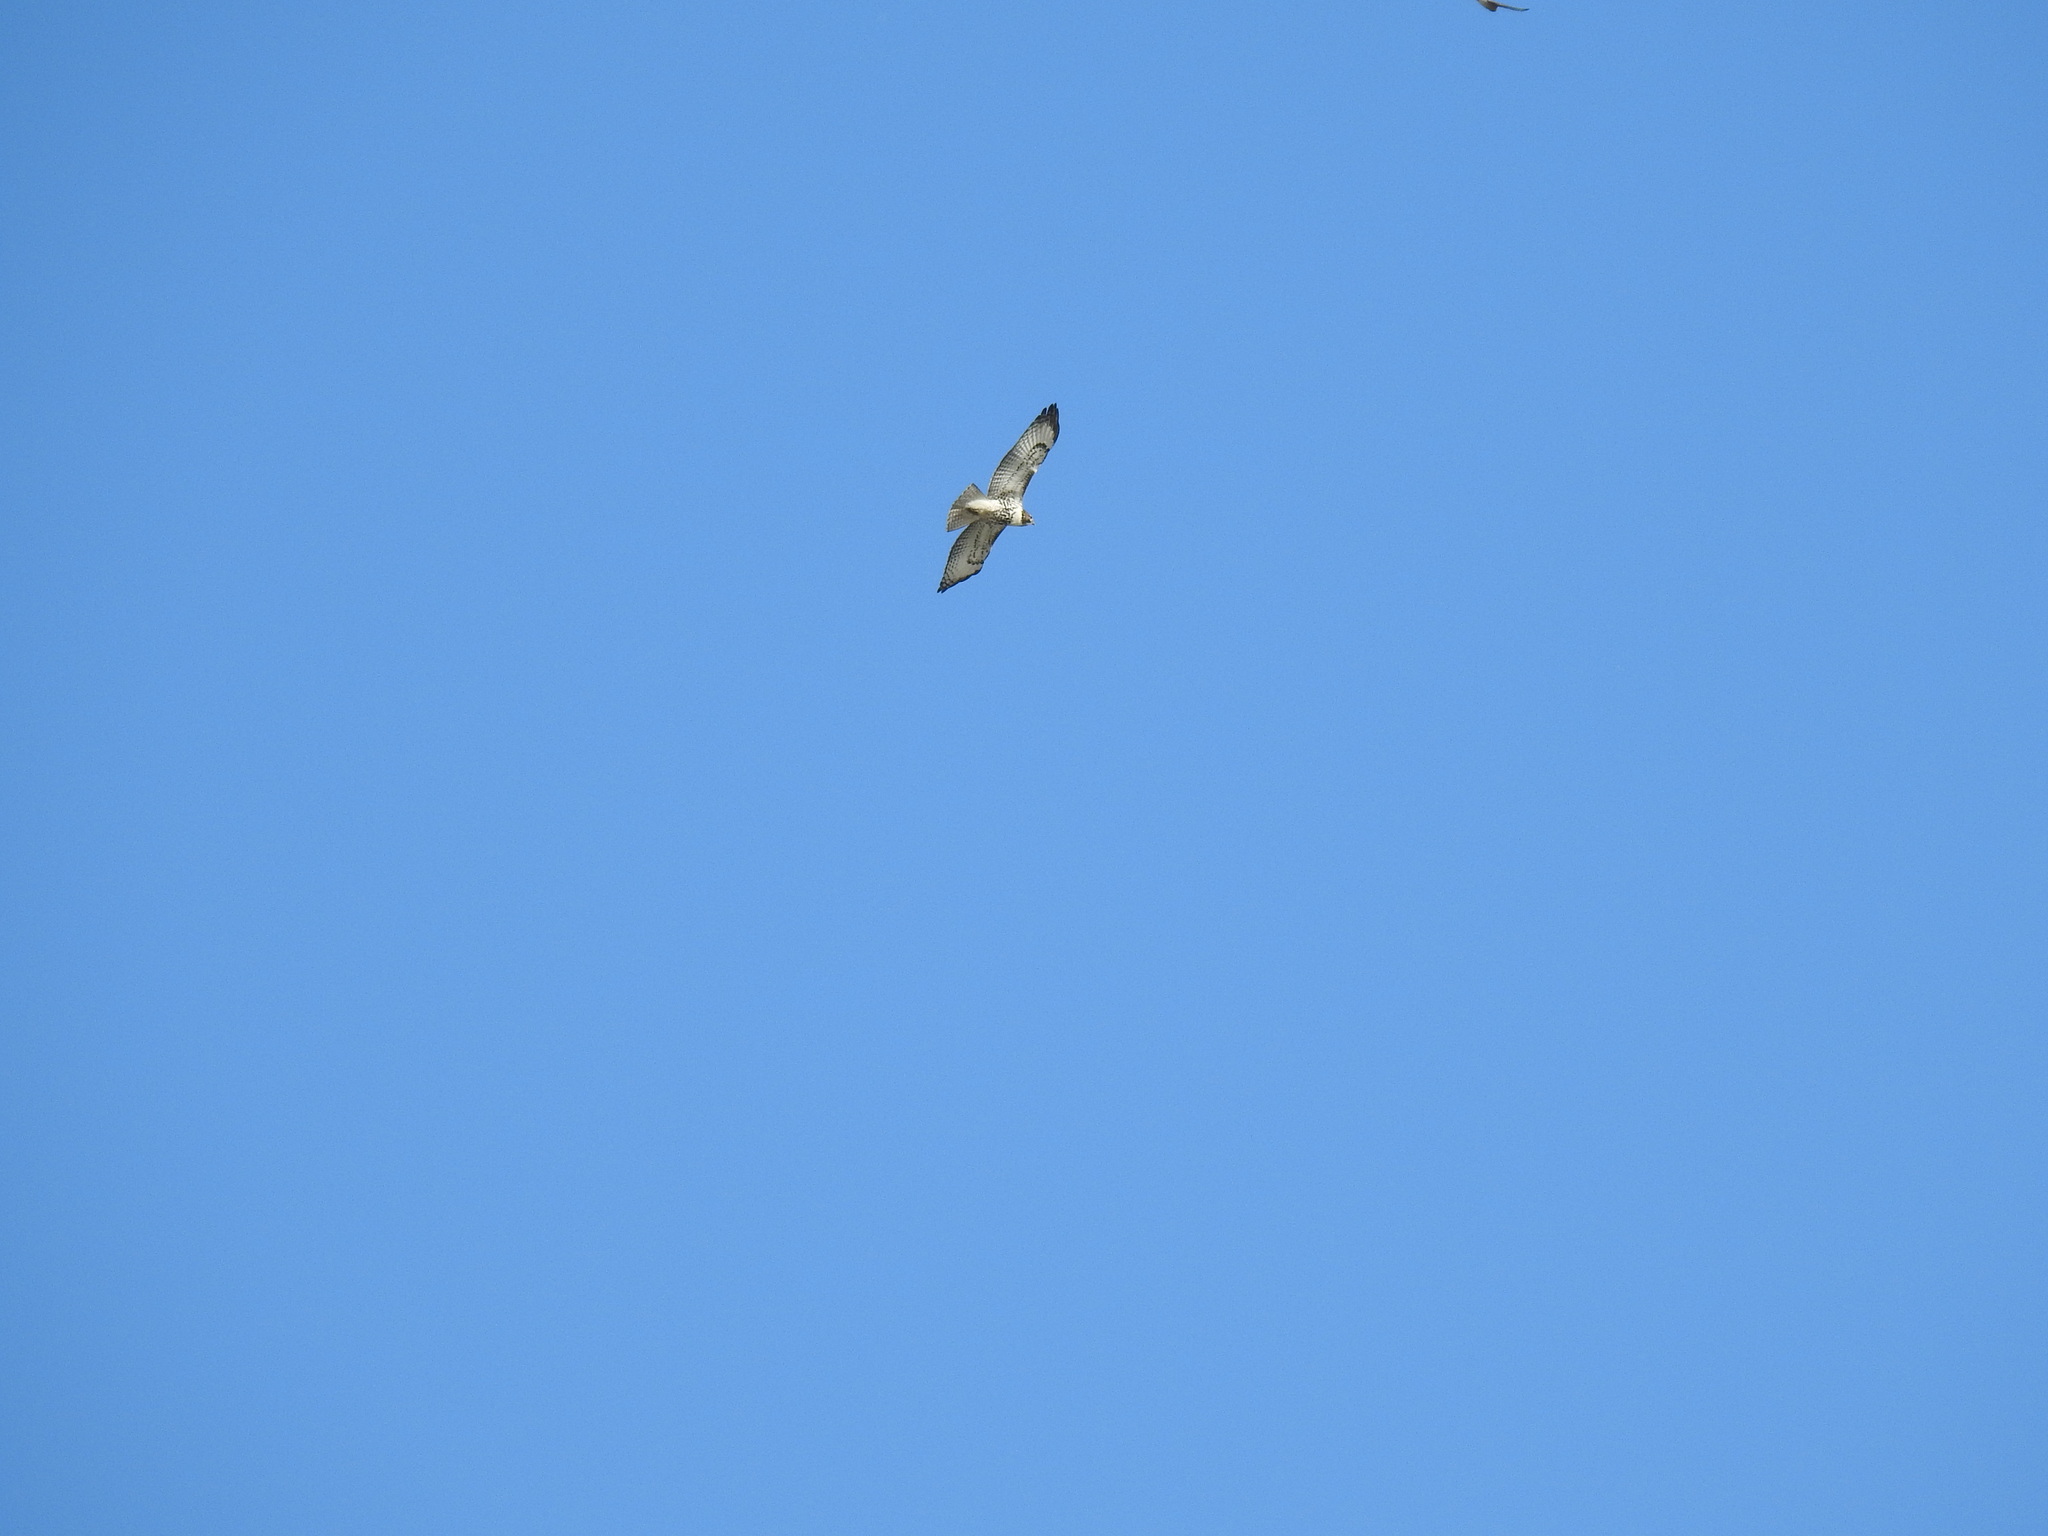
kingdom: Animalia
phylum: Chordata
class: Aves
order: Accipitriformes
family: Accipitridae
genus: Buteo
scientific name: Buteo jamaicensis
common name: Red-tailed hawk
